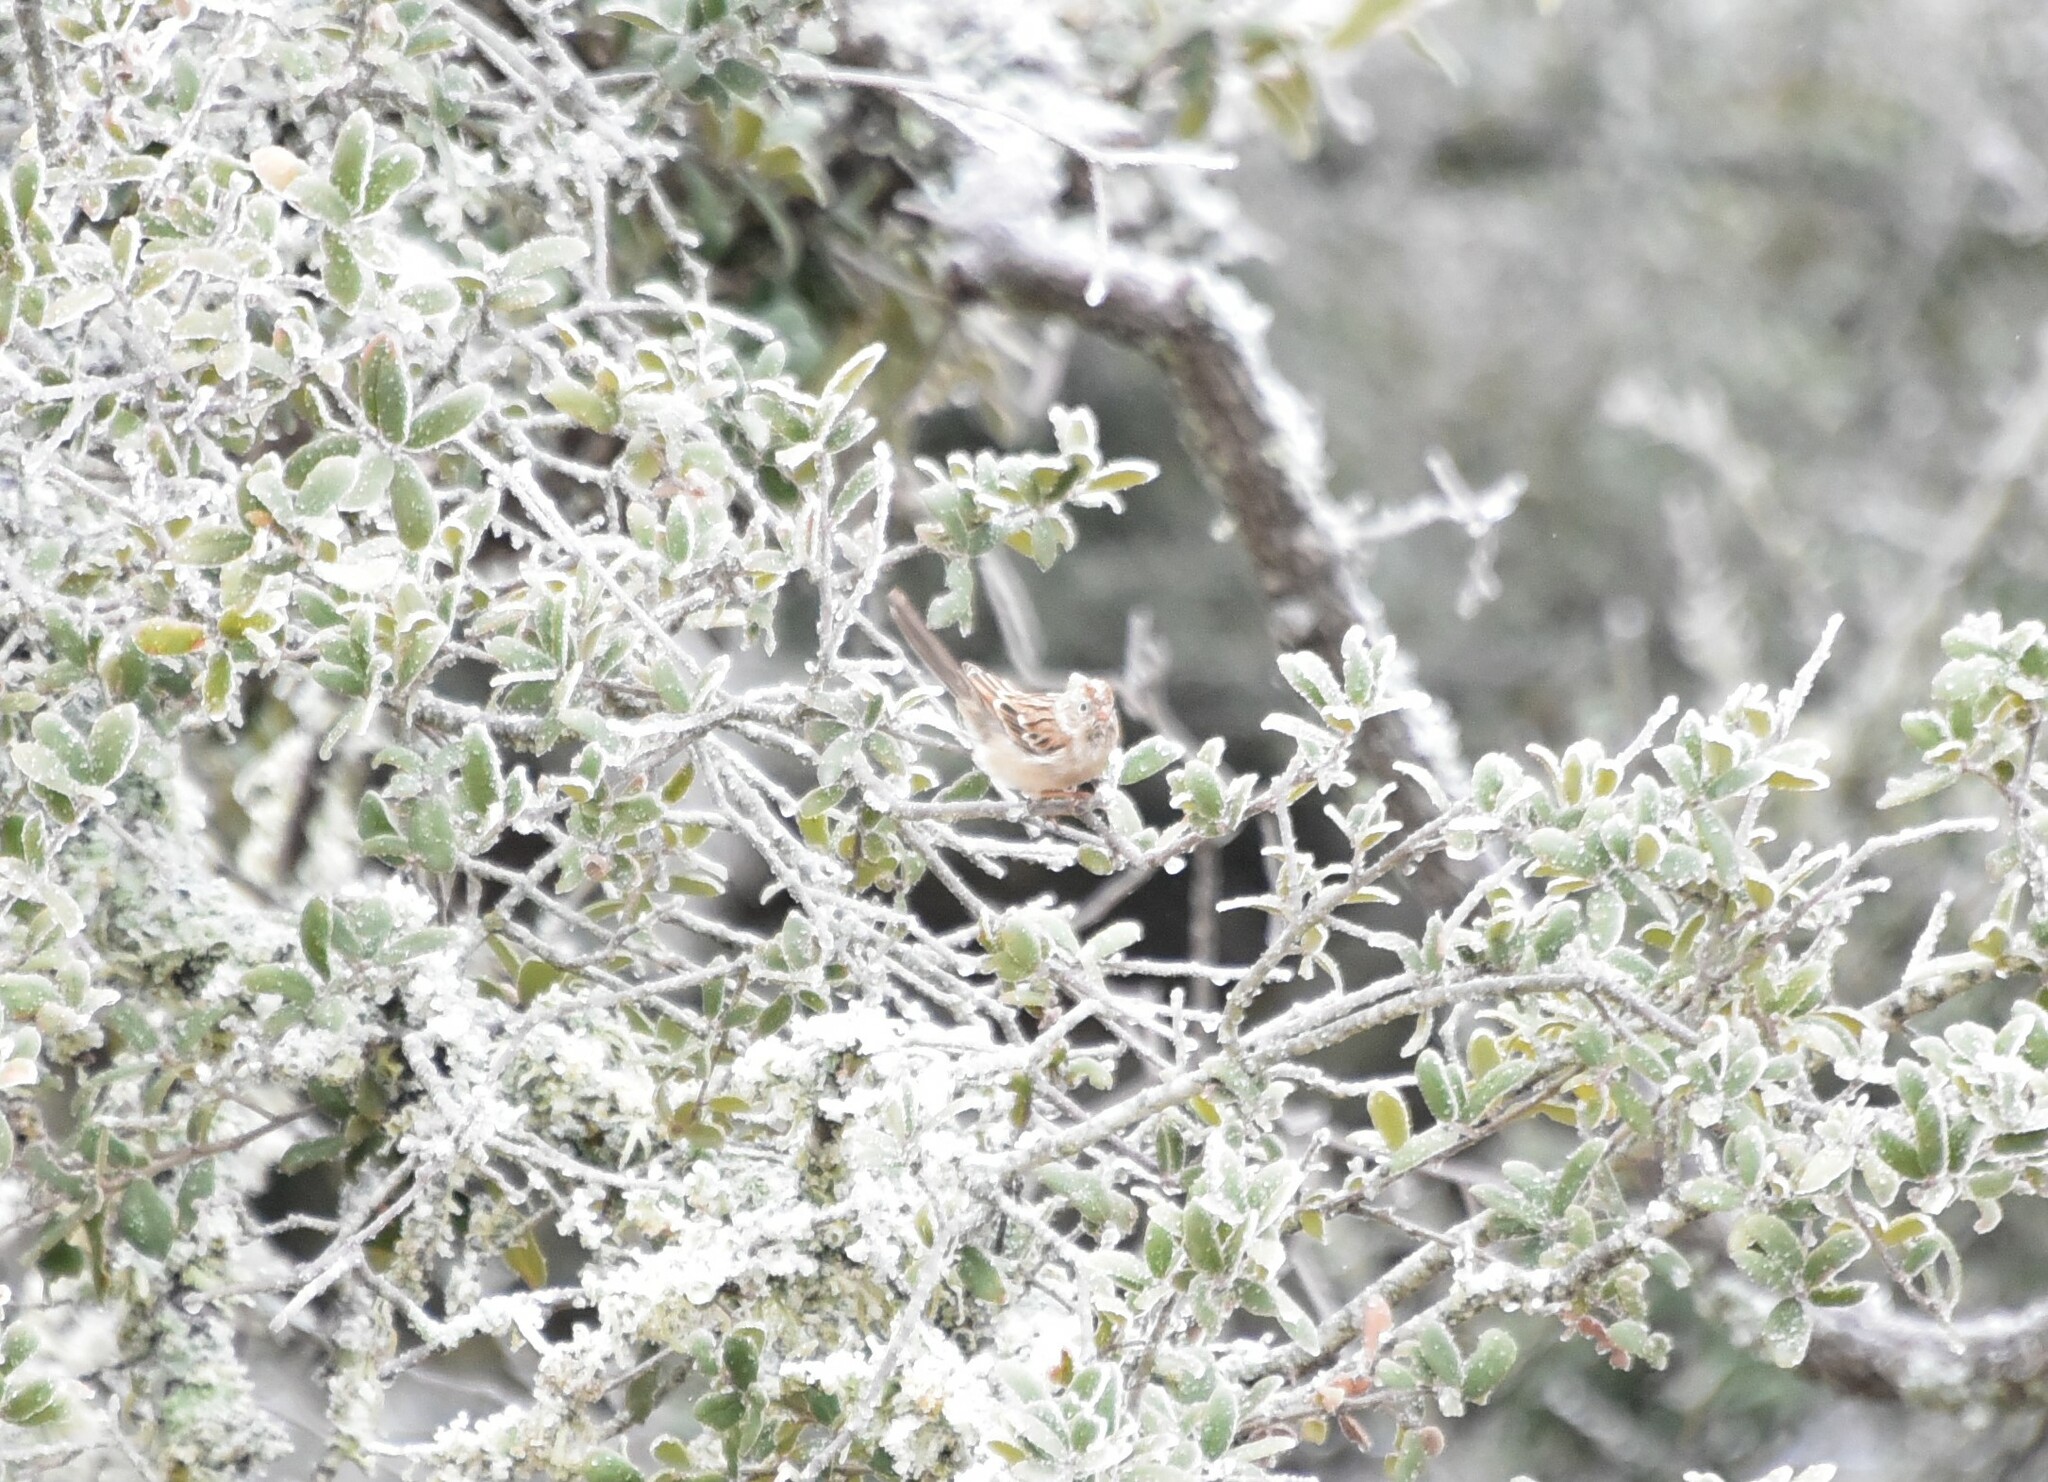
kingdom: Animalia
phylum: Chordata
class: Aves
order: Passeriformes
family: Passerellidae
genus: Spizella
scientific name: Spizella pusilla
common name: Field sparrow
